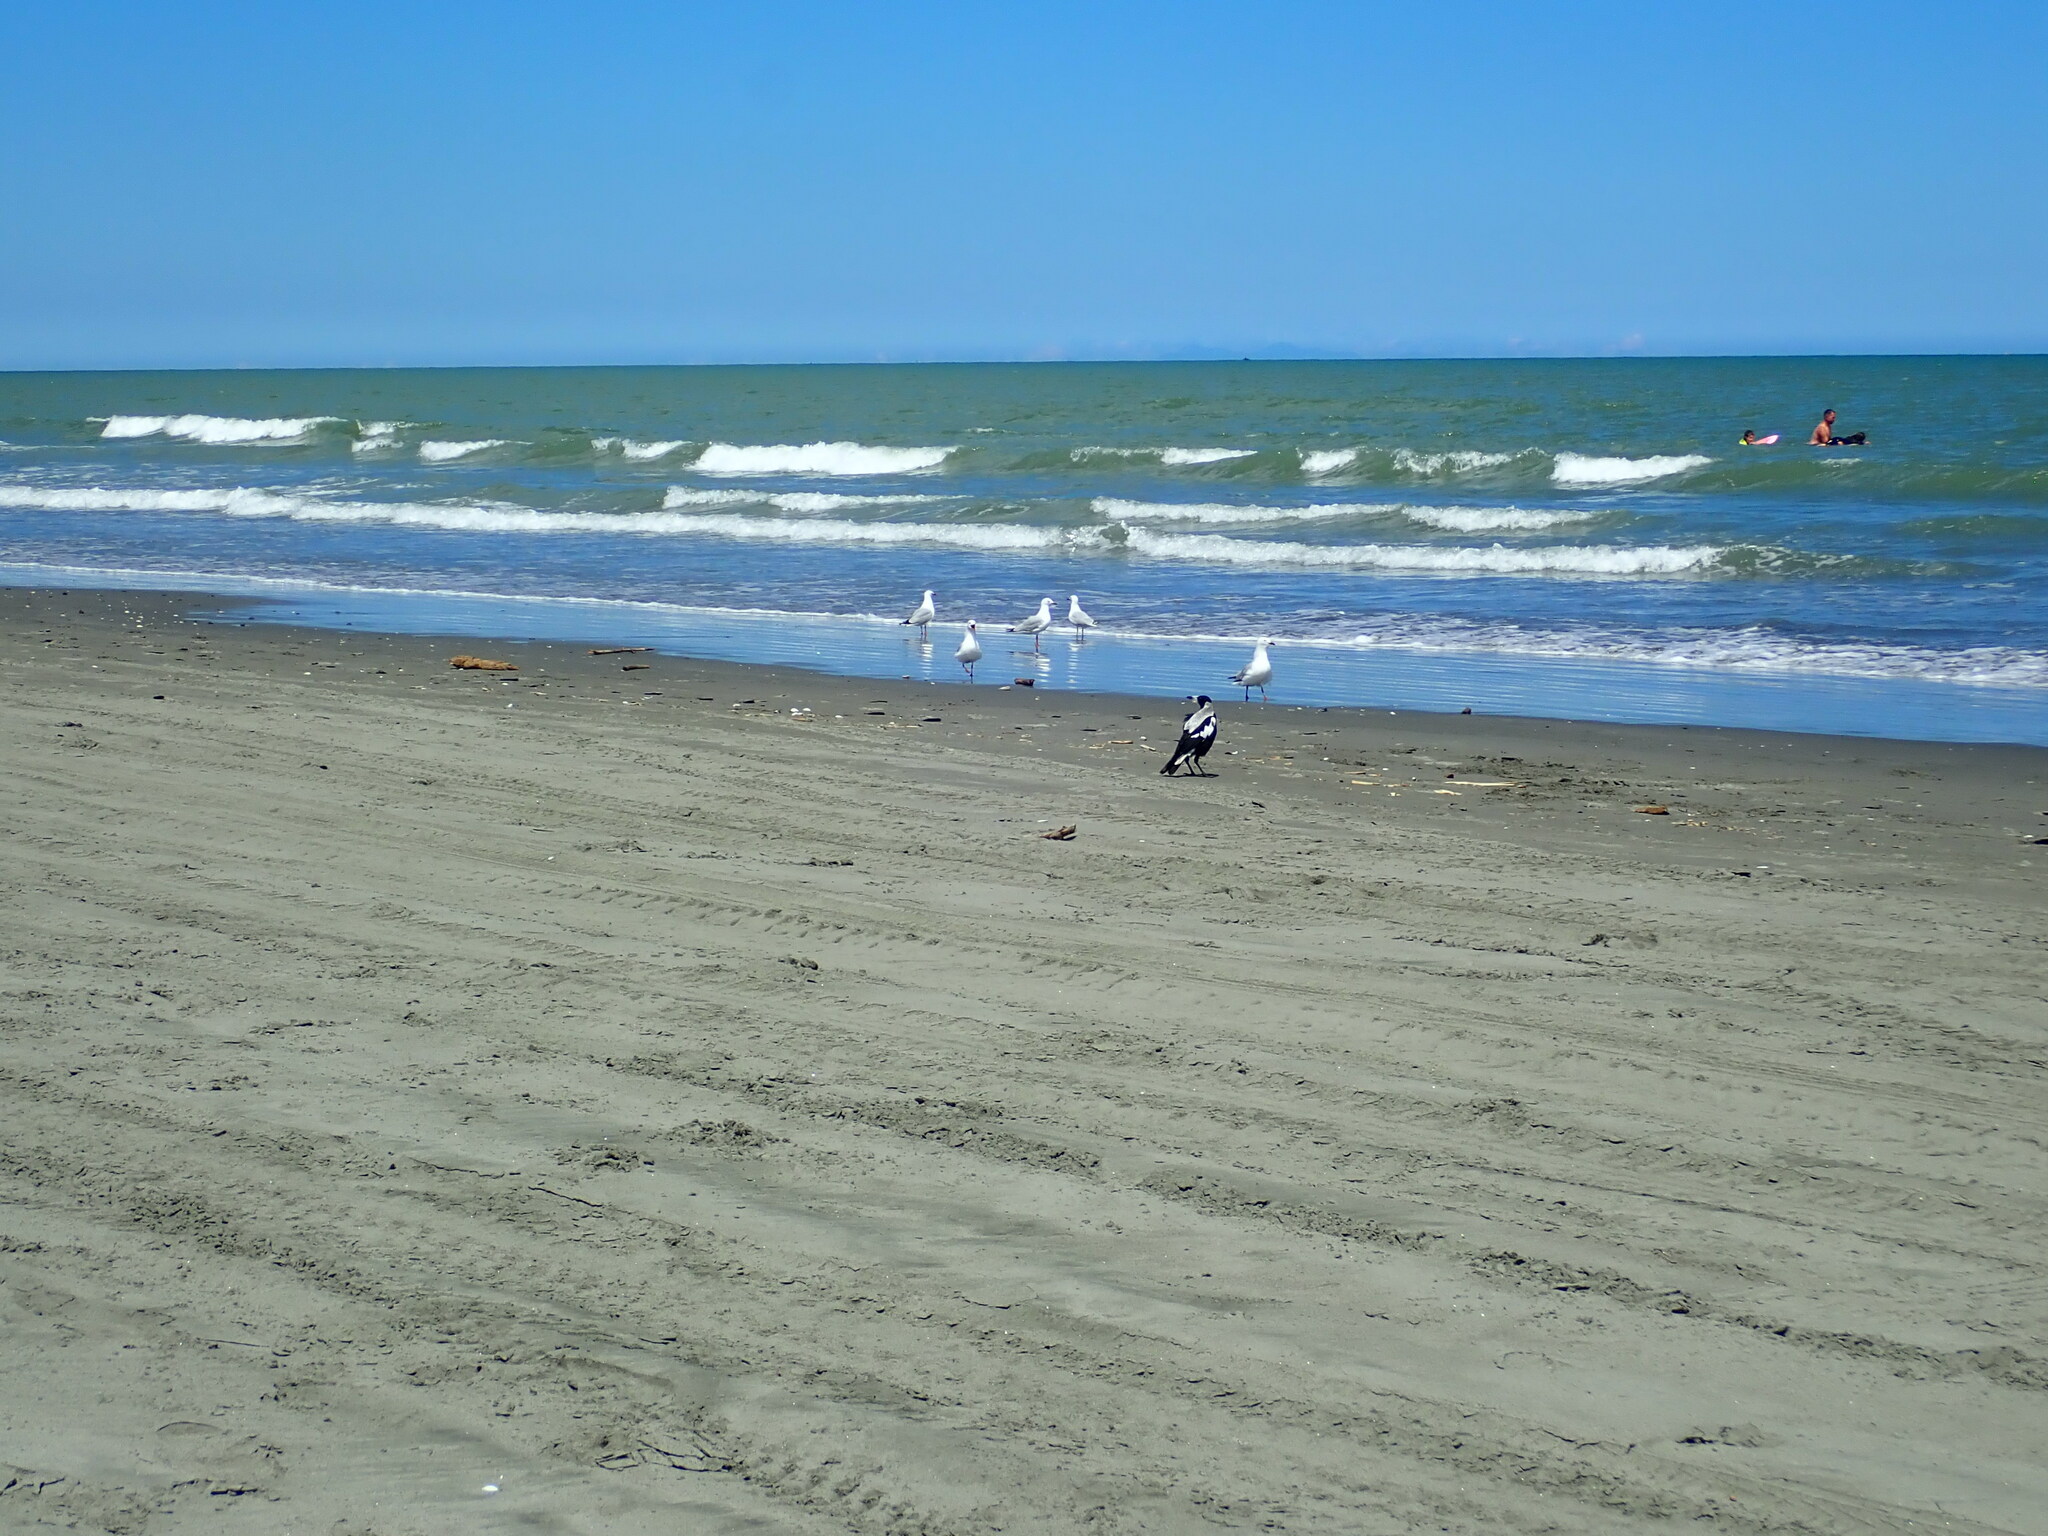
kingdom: Animalia
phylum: Chordata
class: Aves
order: Passeriformes
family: Cracticidae
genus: Gymnorhina
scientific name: Gymnorhina tibicen
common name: Australian magpie
